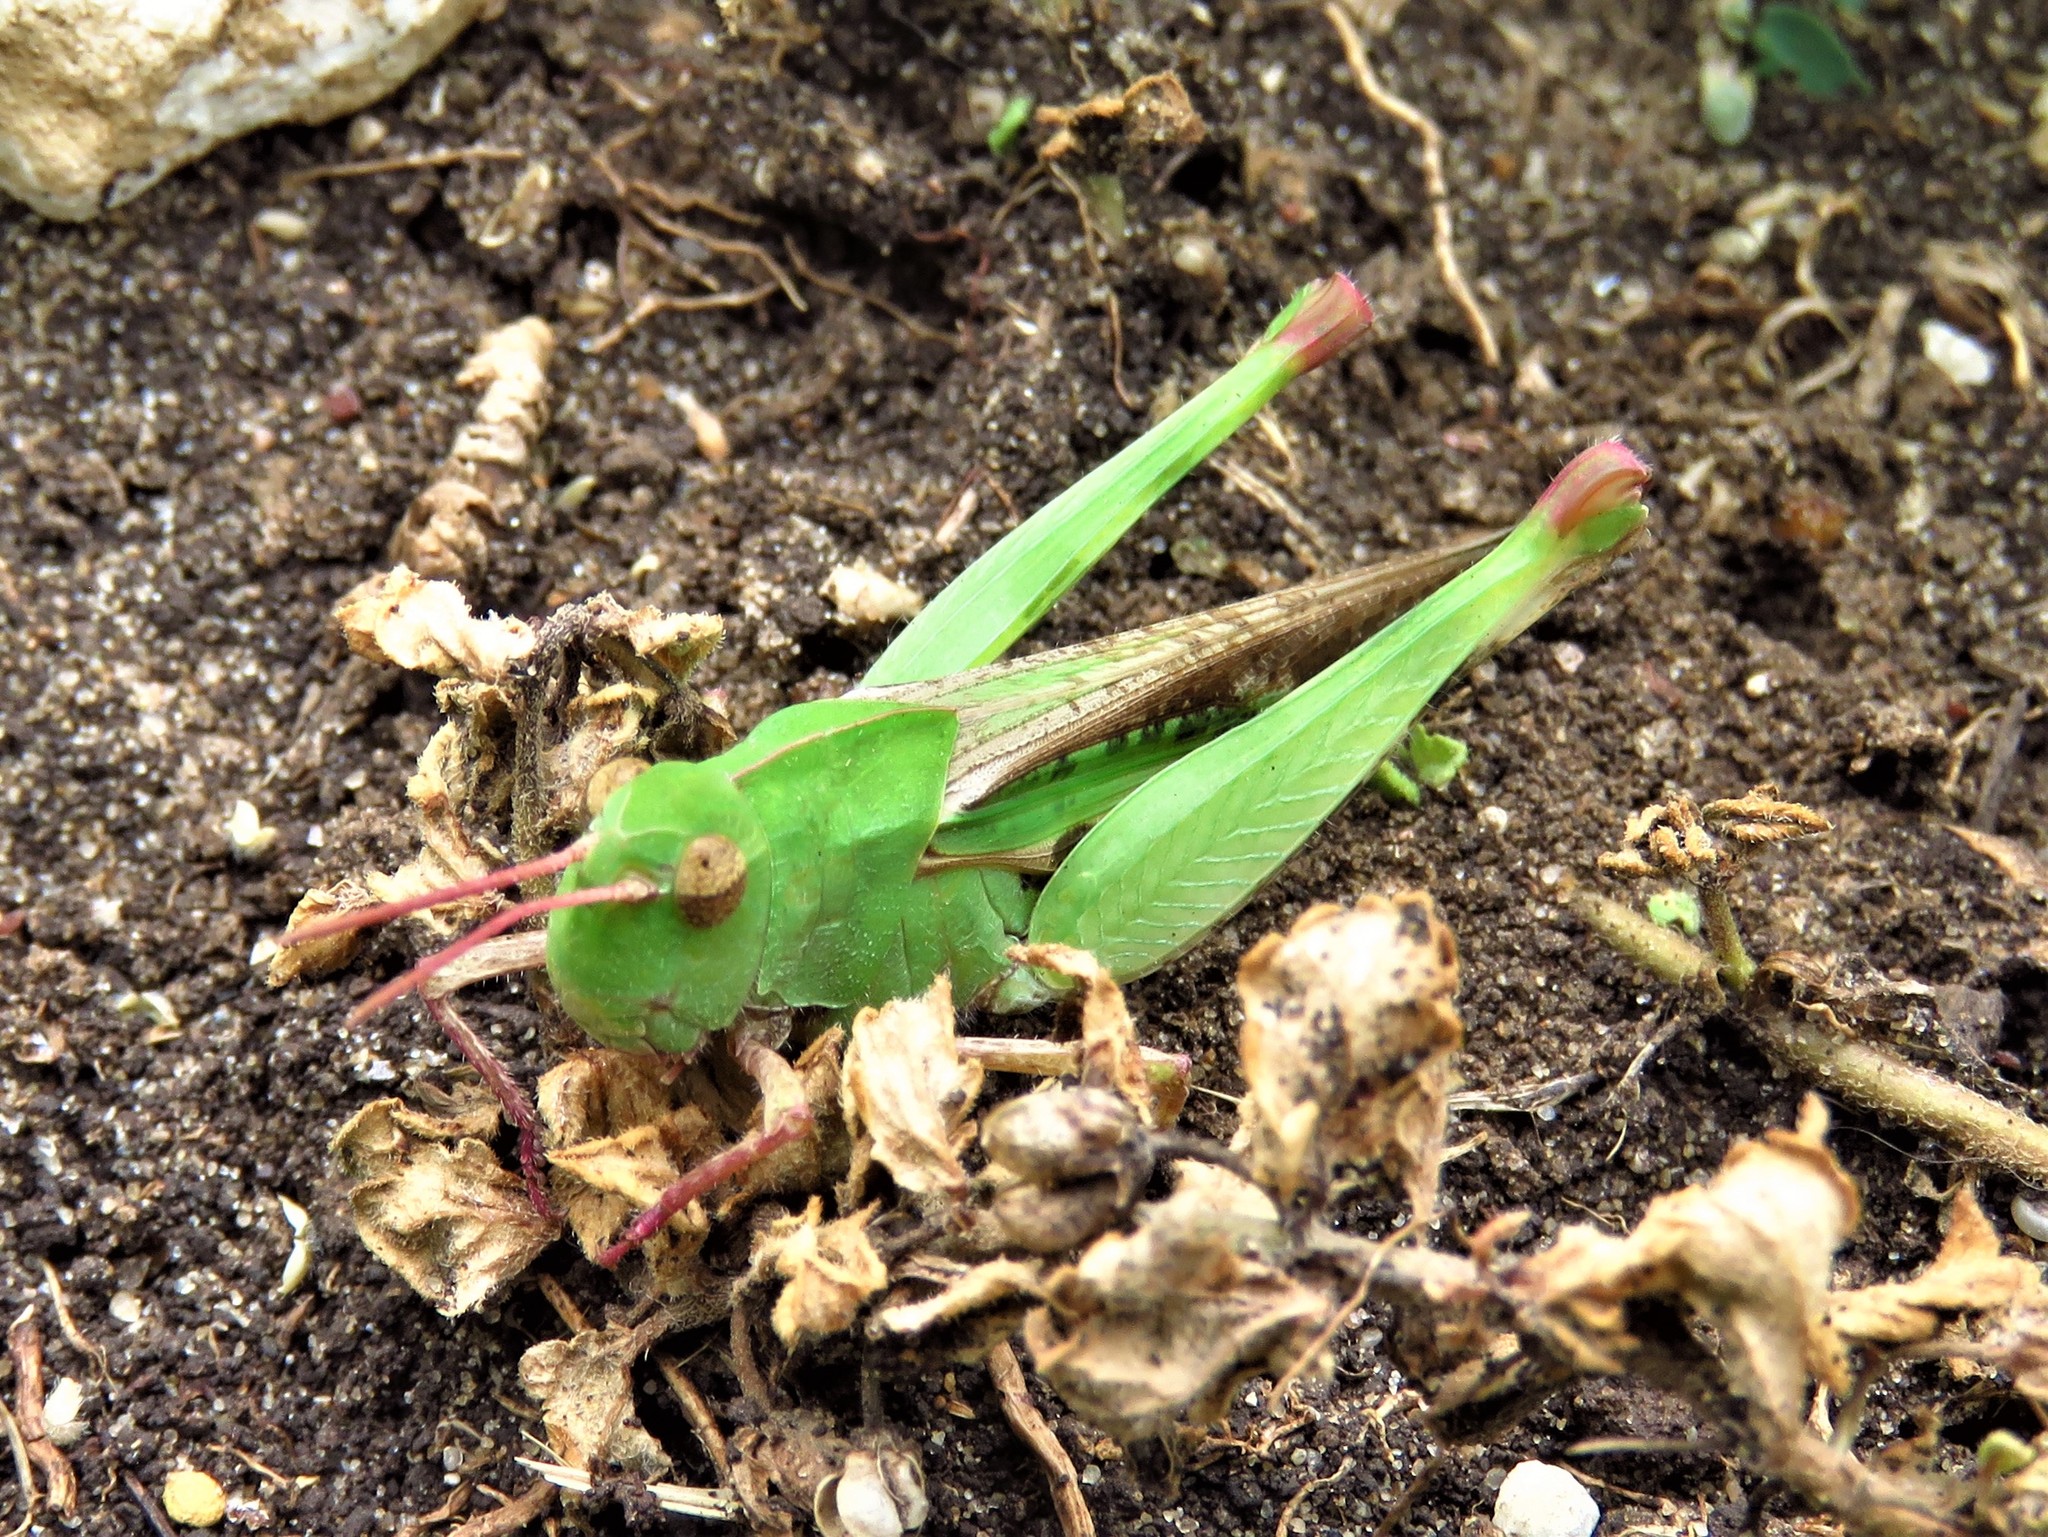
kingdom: Animalia
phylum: Arthropoda
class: Insecta
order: Orthoptera
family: Acrididae
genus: Chortophaga
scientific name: Chortophaga viridifasciata
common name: Green-striped grasshopper
